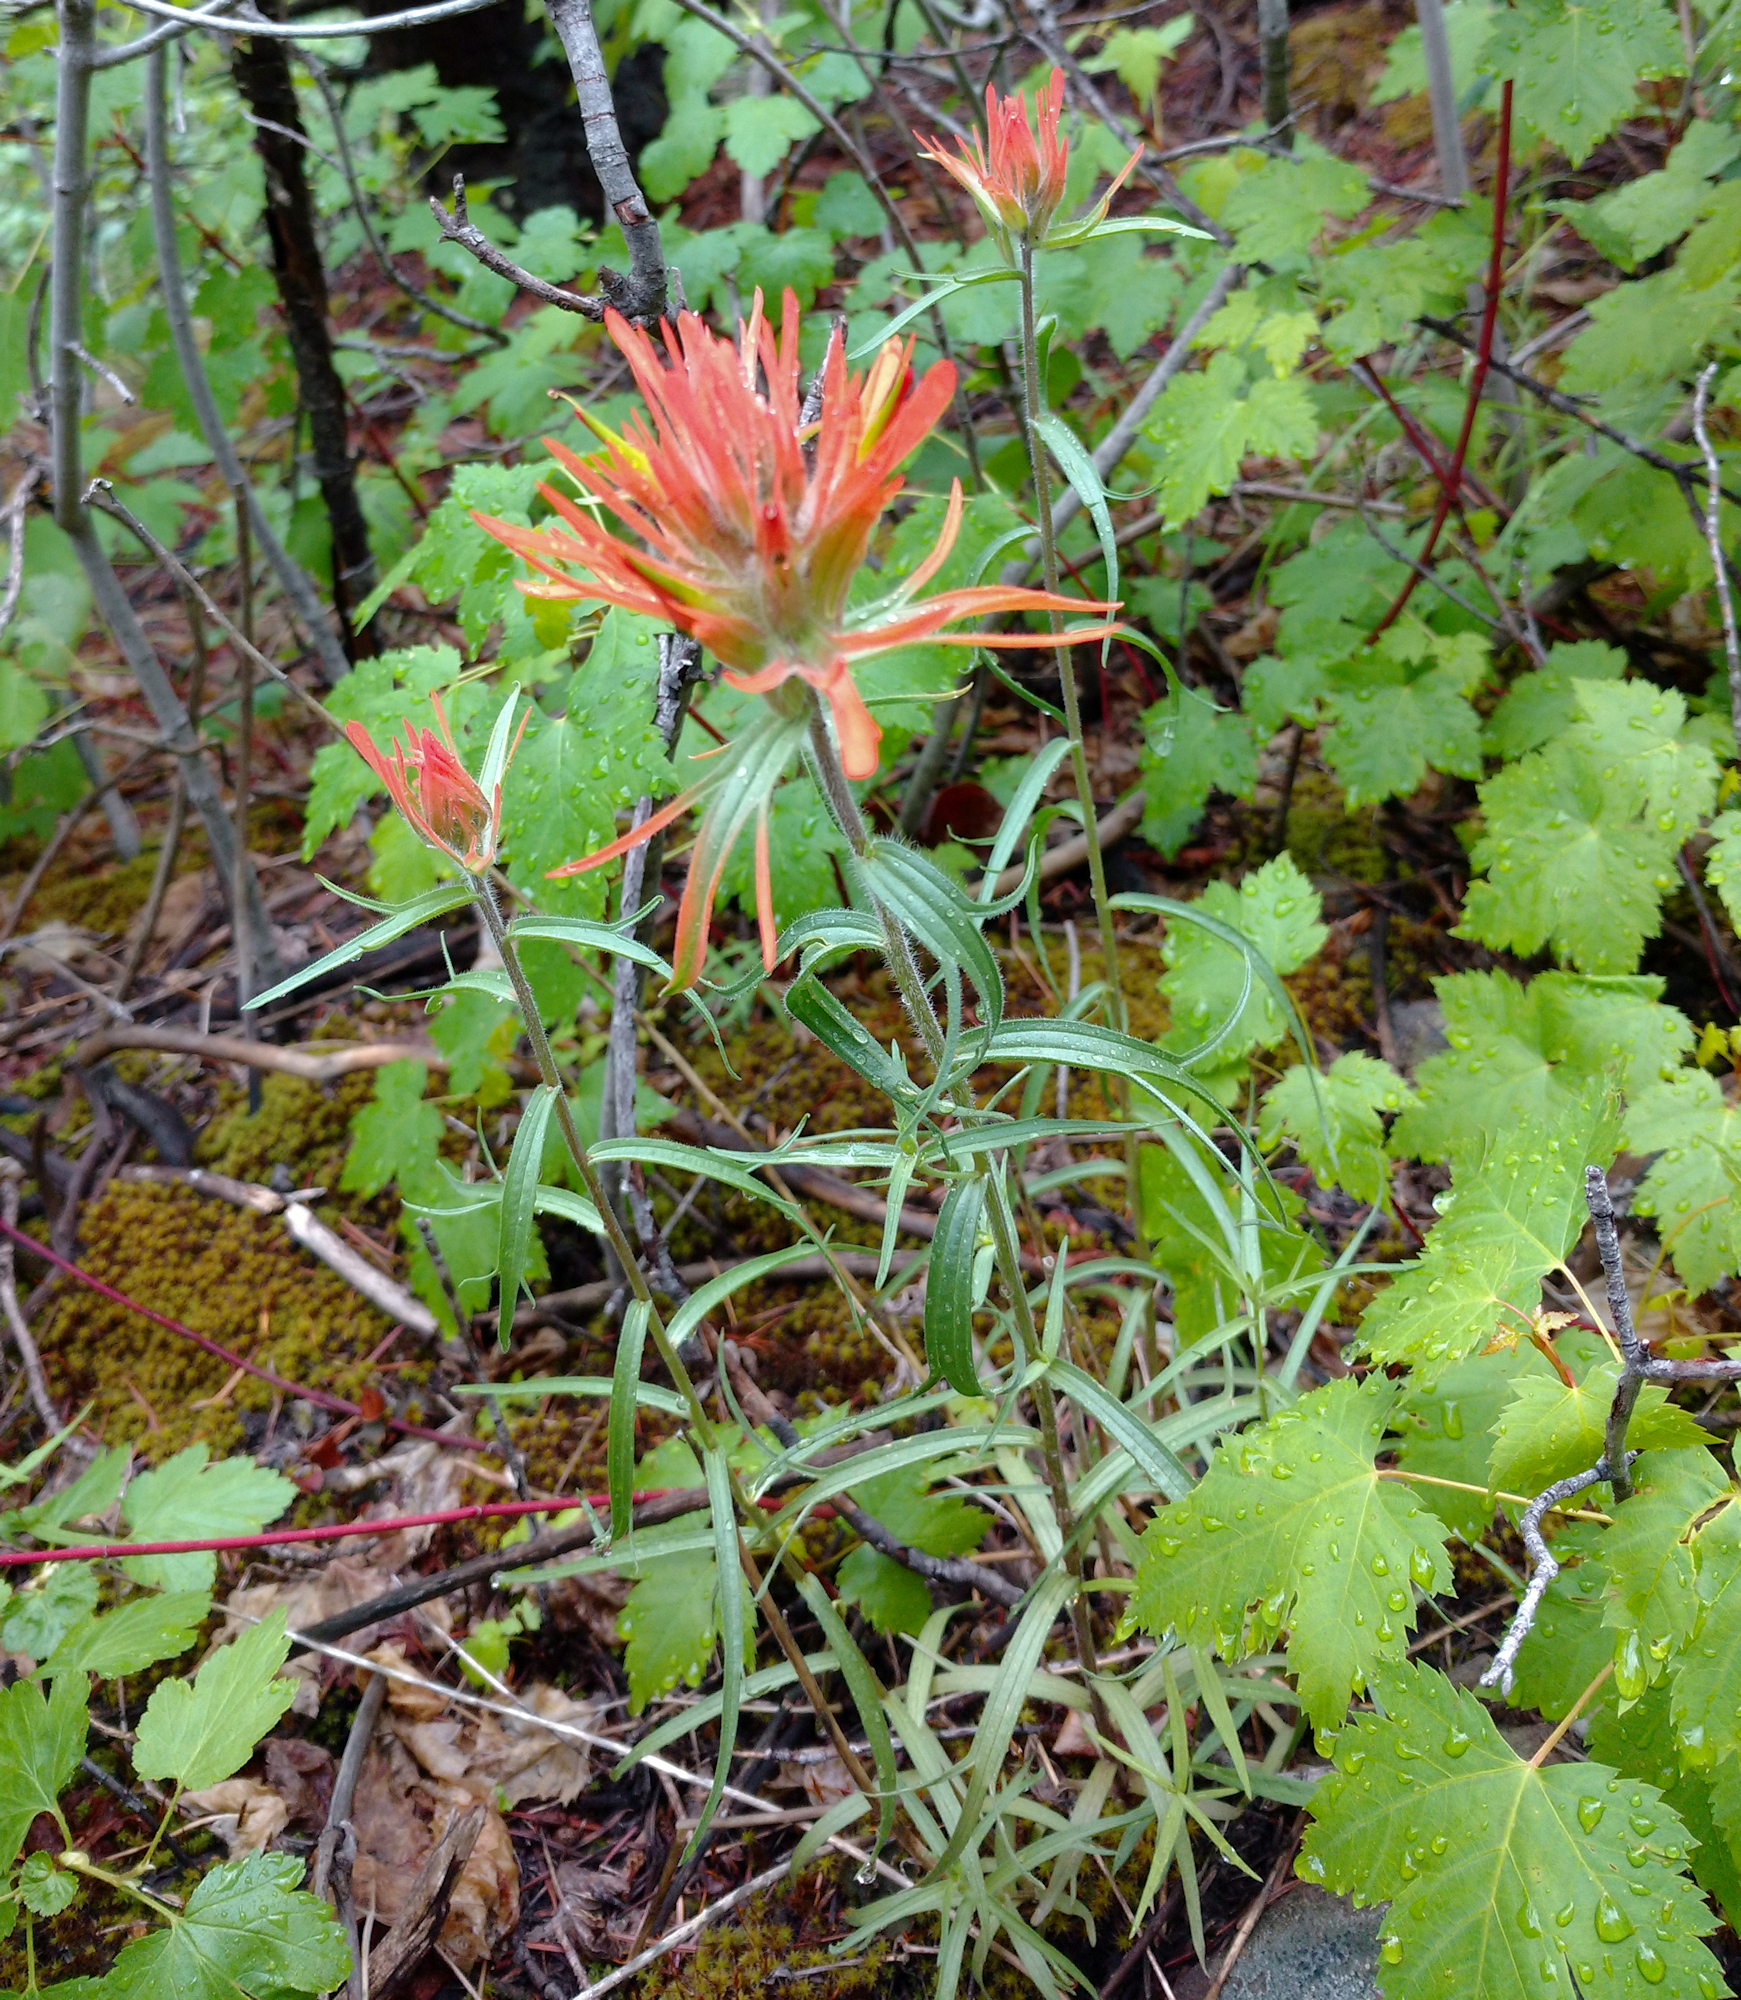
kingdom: Plantae
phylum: Tracheophyta
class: Magnoliopsida
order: Lamiales
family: Orobanchaceae
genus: Castilleja
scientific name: Castilleja crista-galli
